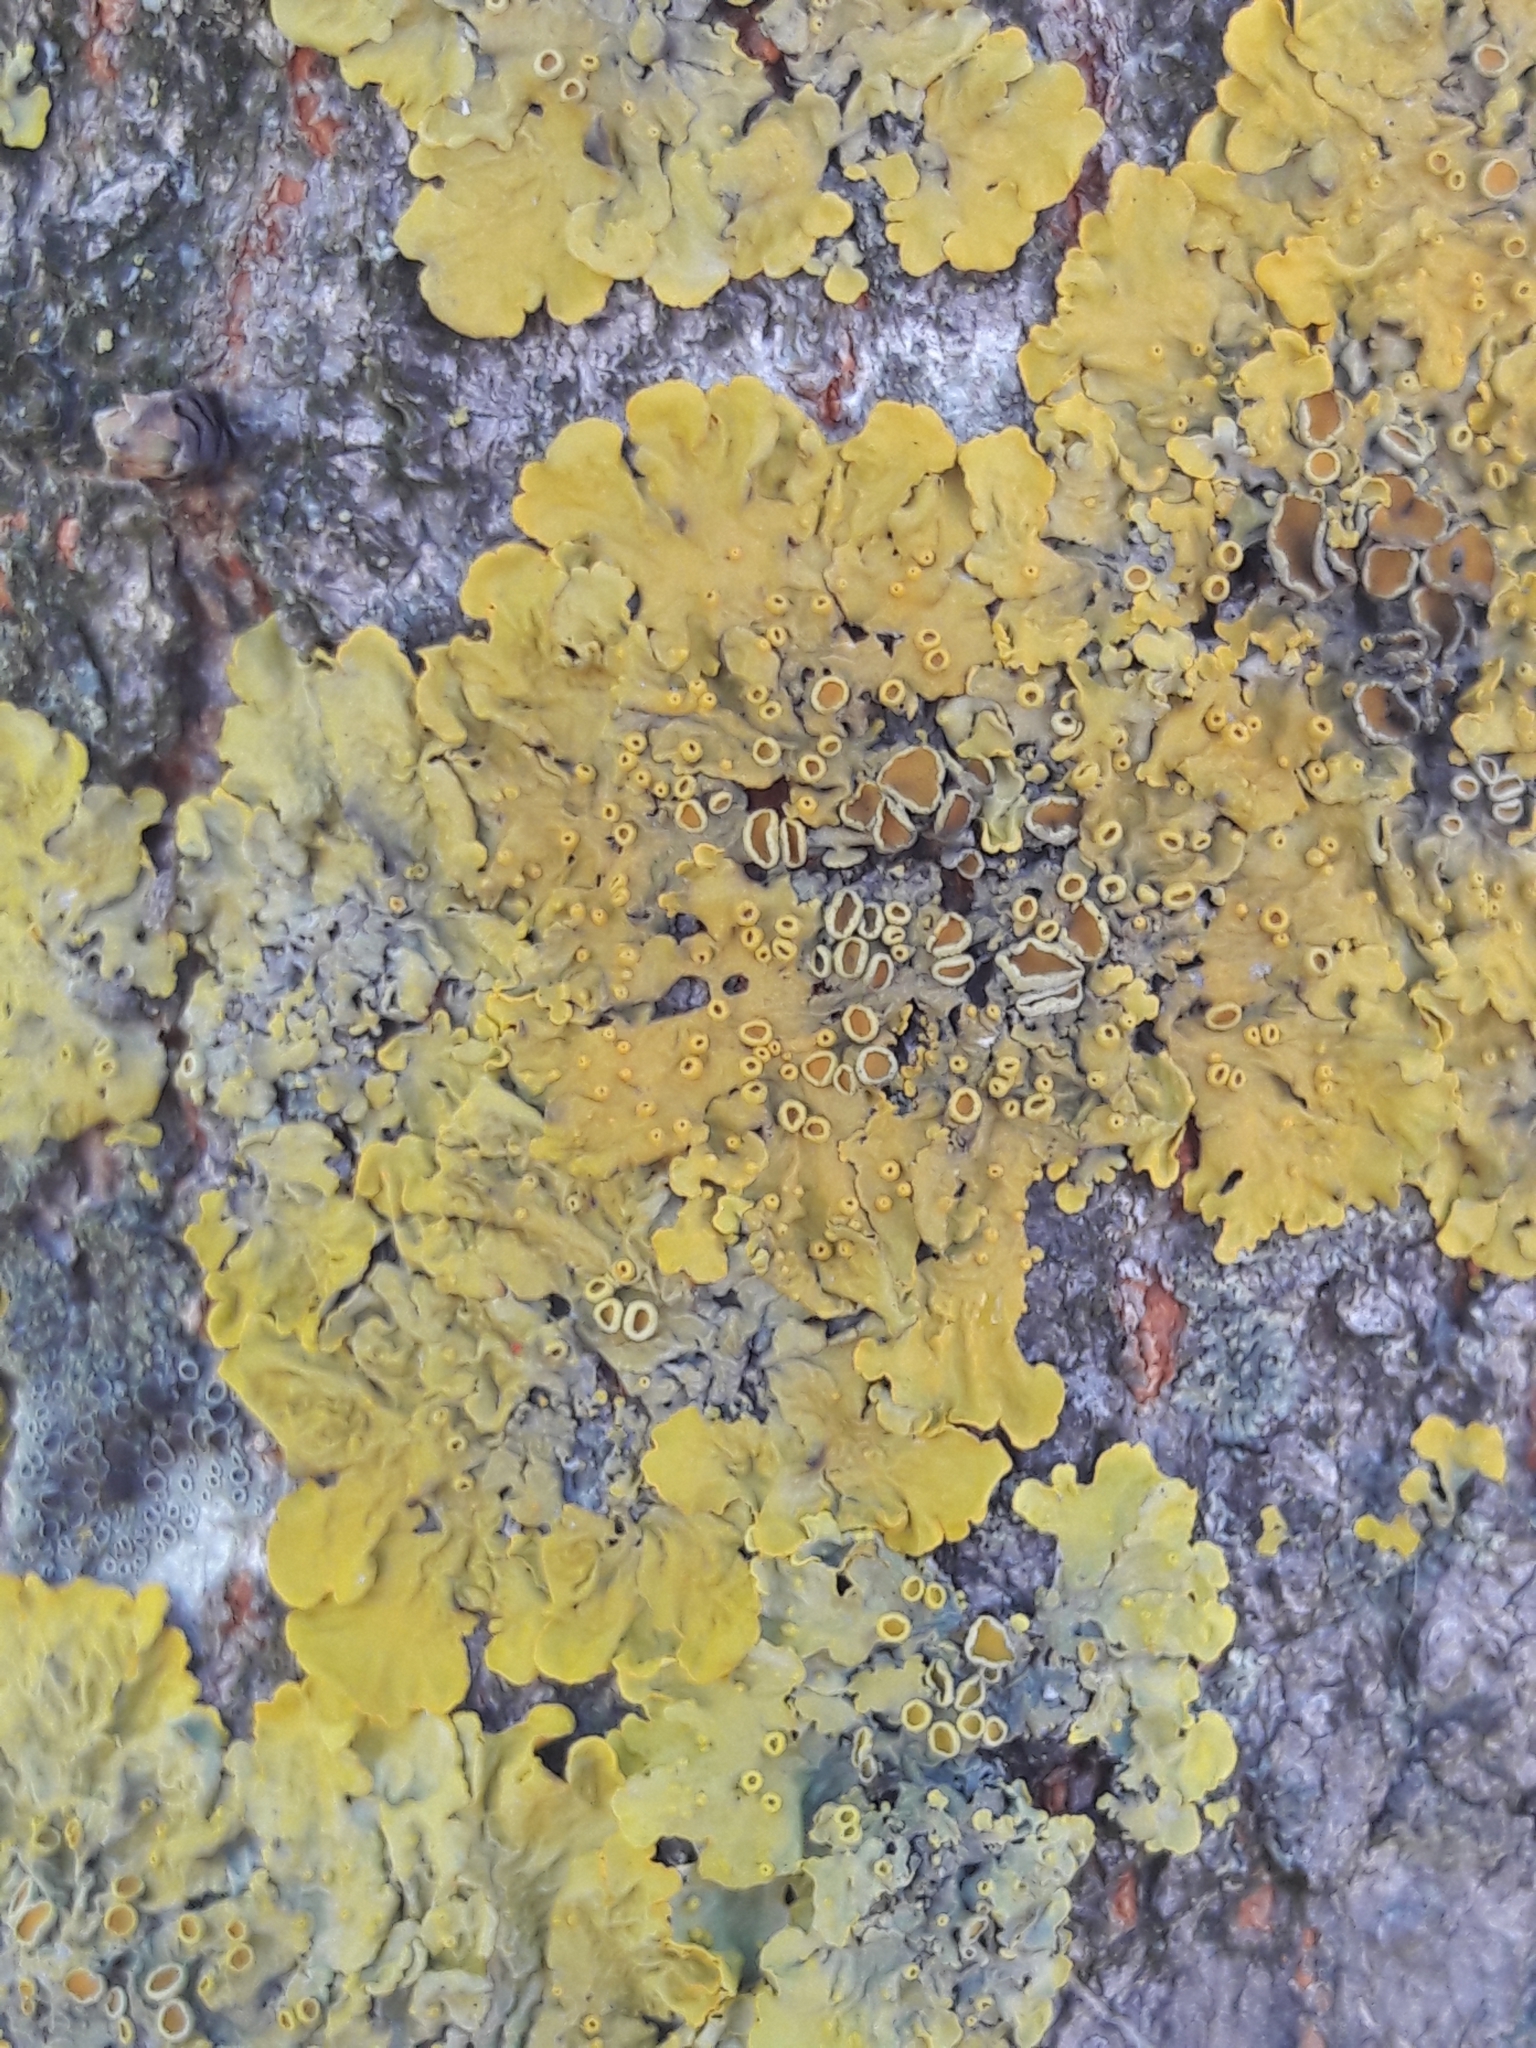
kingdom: Fungi
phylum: Ascomycota
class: Lecanoromycetes
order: Teloschistales
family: Teloschistaceae
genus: Xanthoria
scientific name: Xanthoria parietina
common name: Common orange lichen
